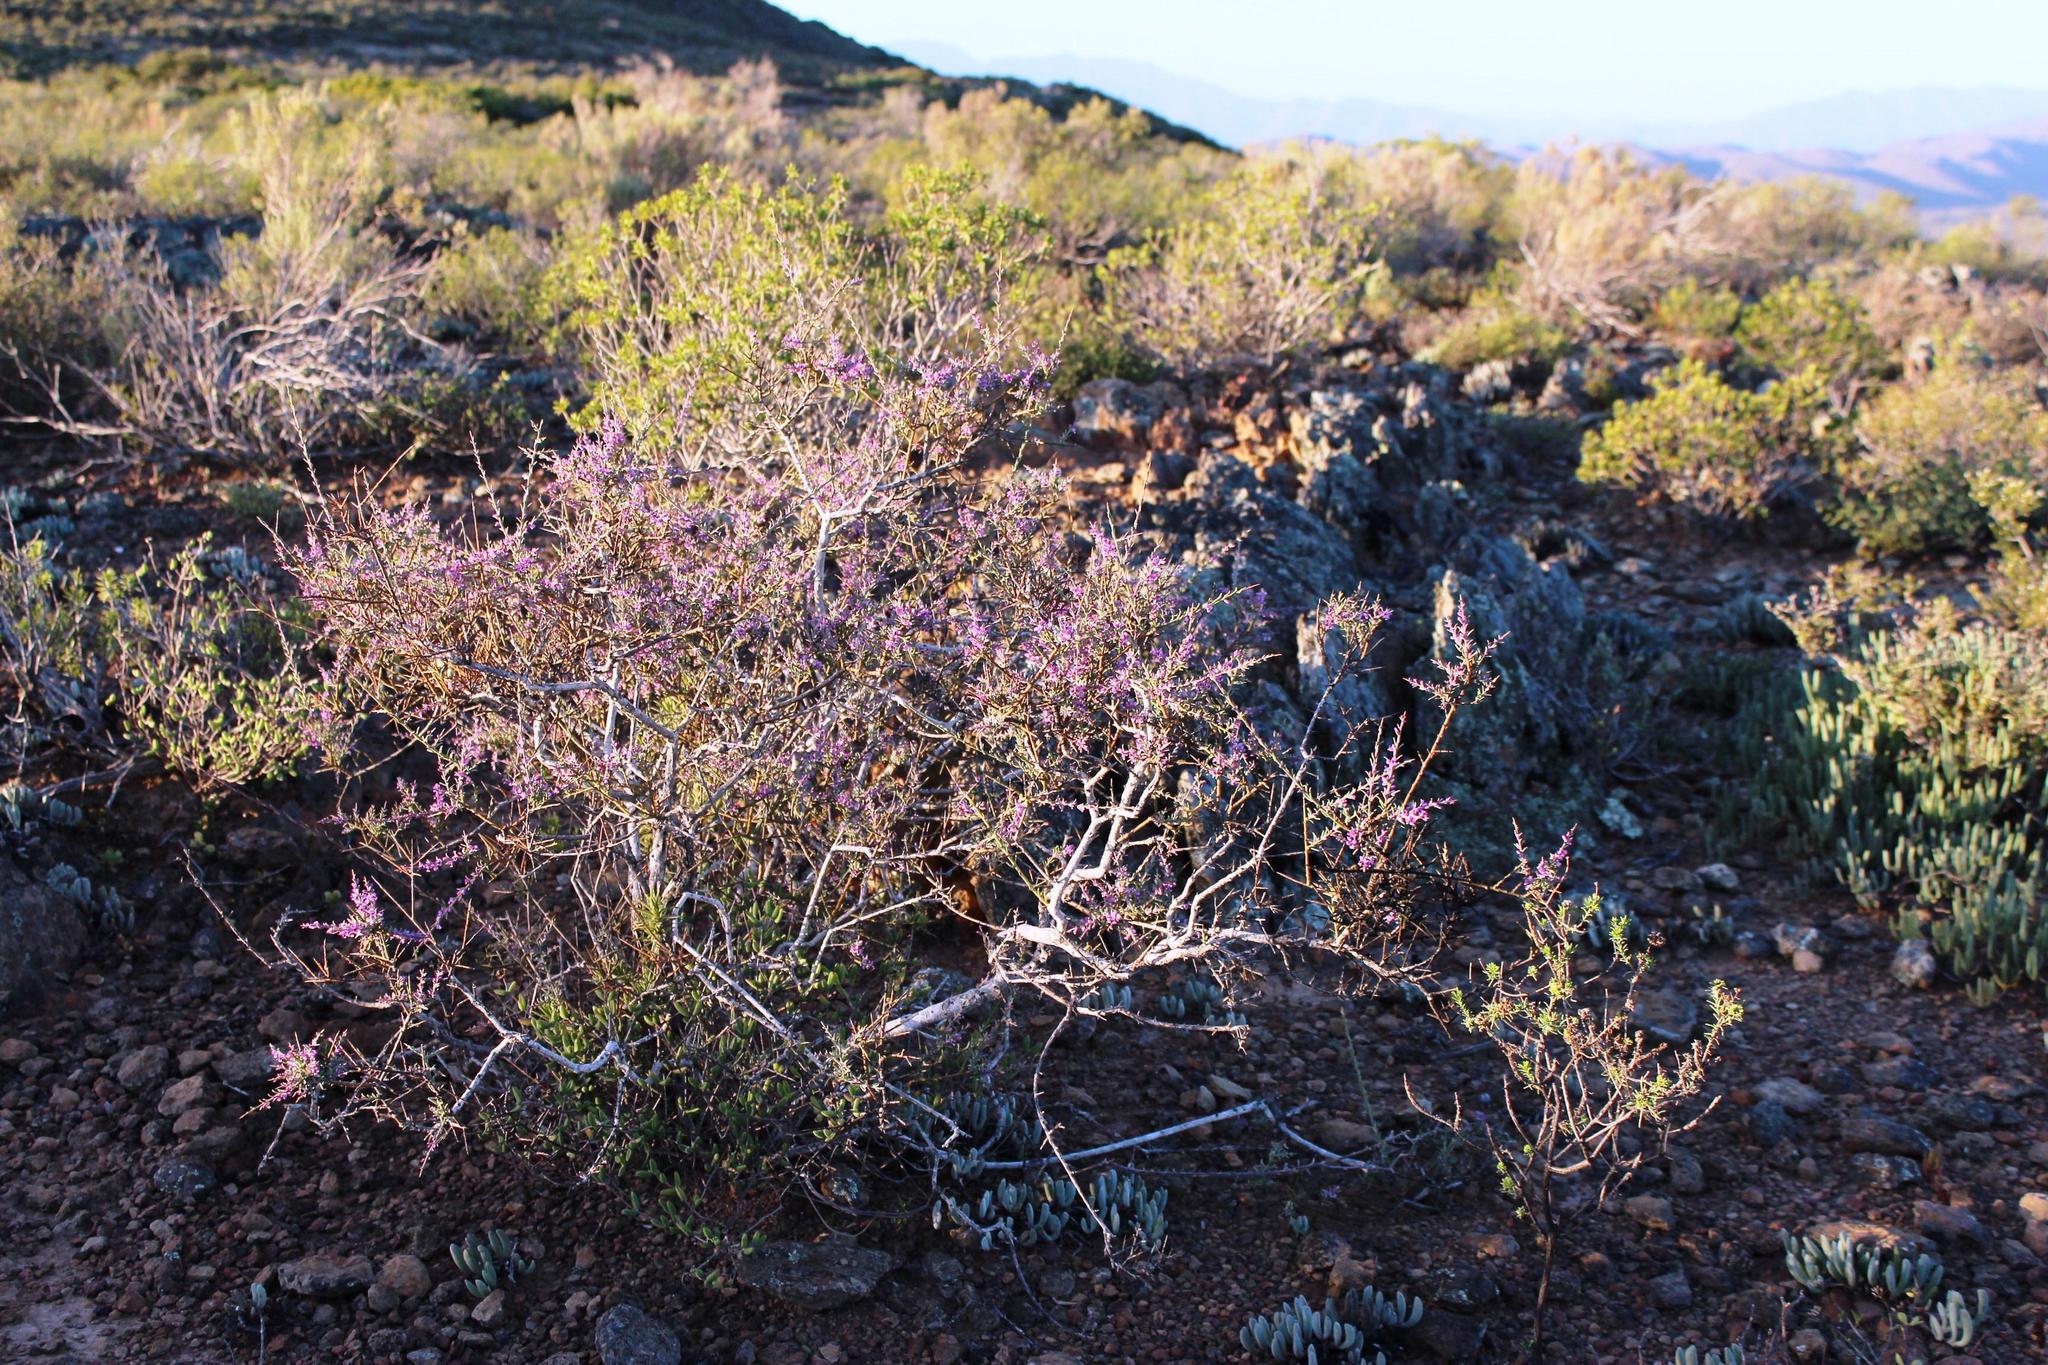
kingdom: Plantae
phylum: Tracheophyta
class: Magnoliopsida
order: Fabales
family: Polygalaceae
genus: Muraltia
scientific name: Muraltia spinosa
